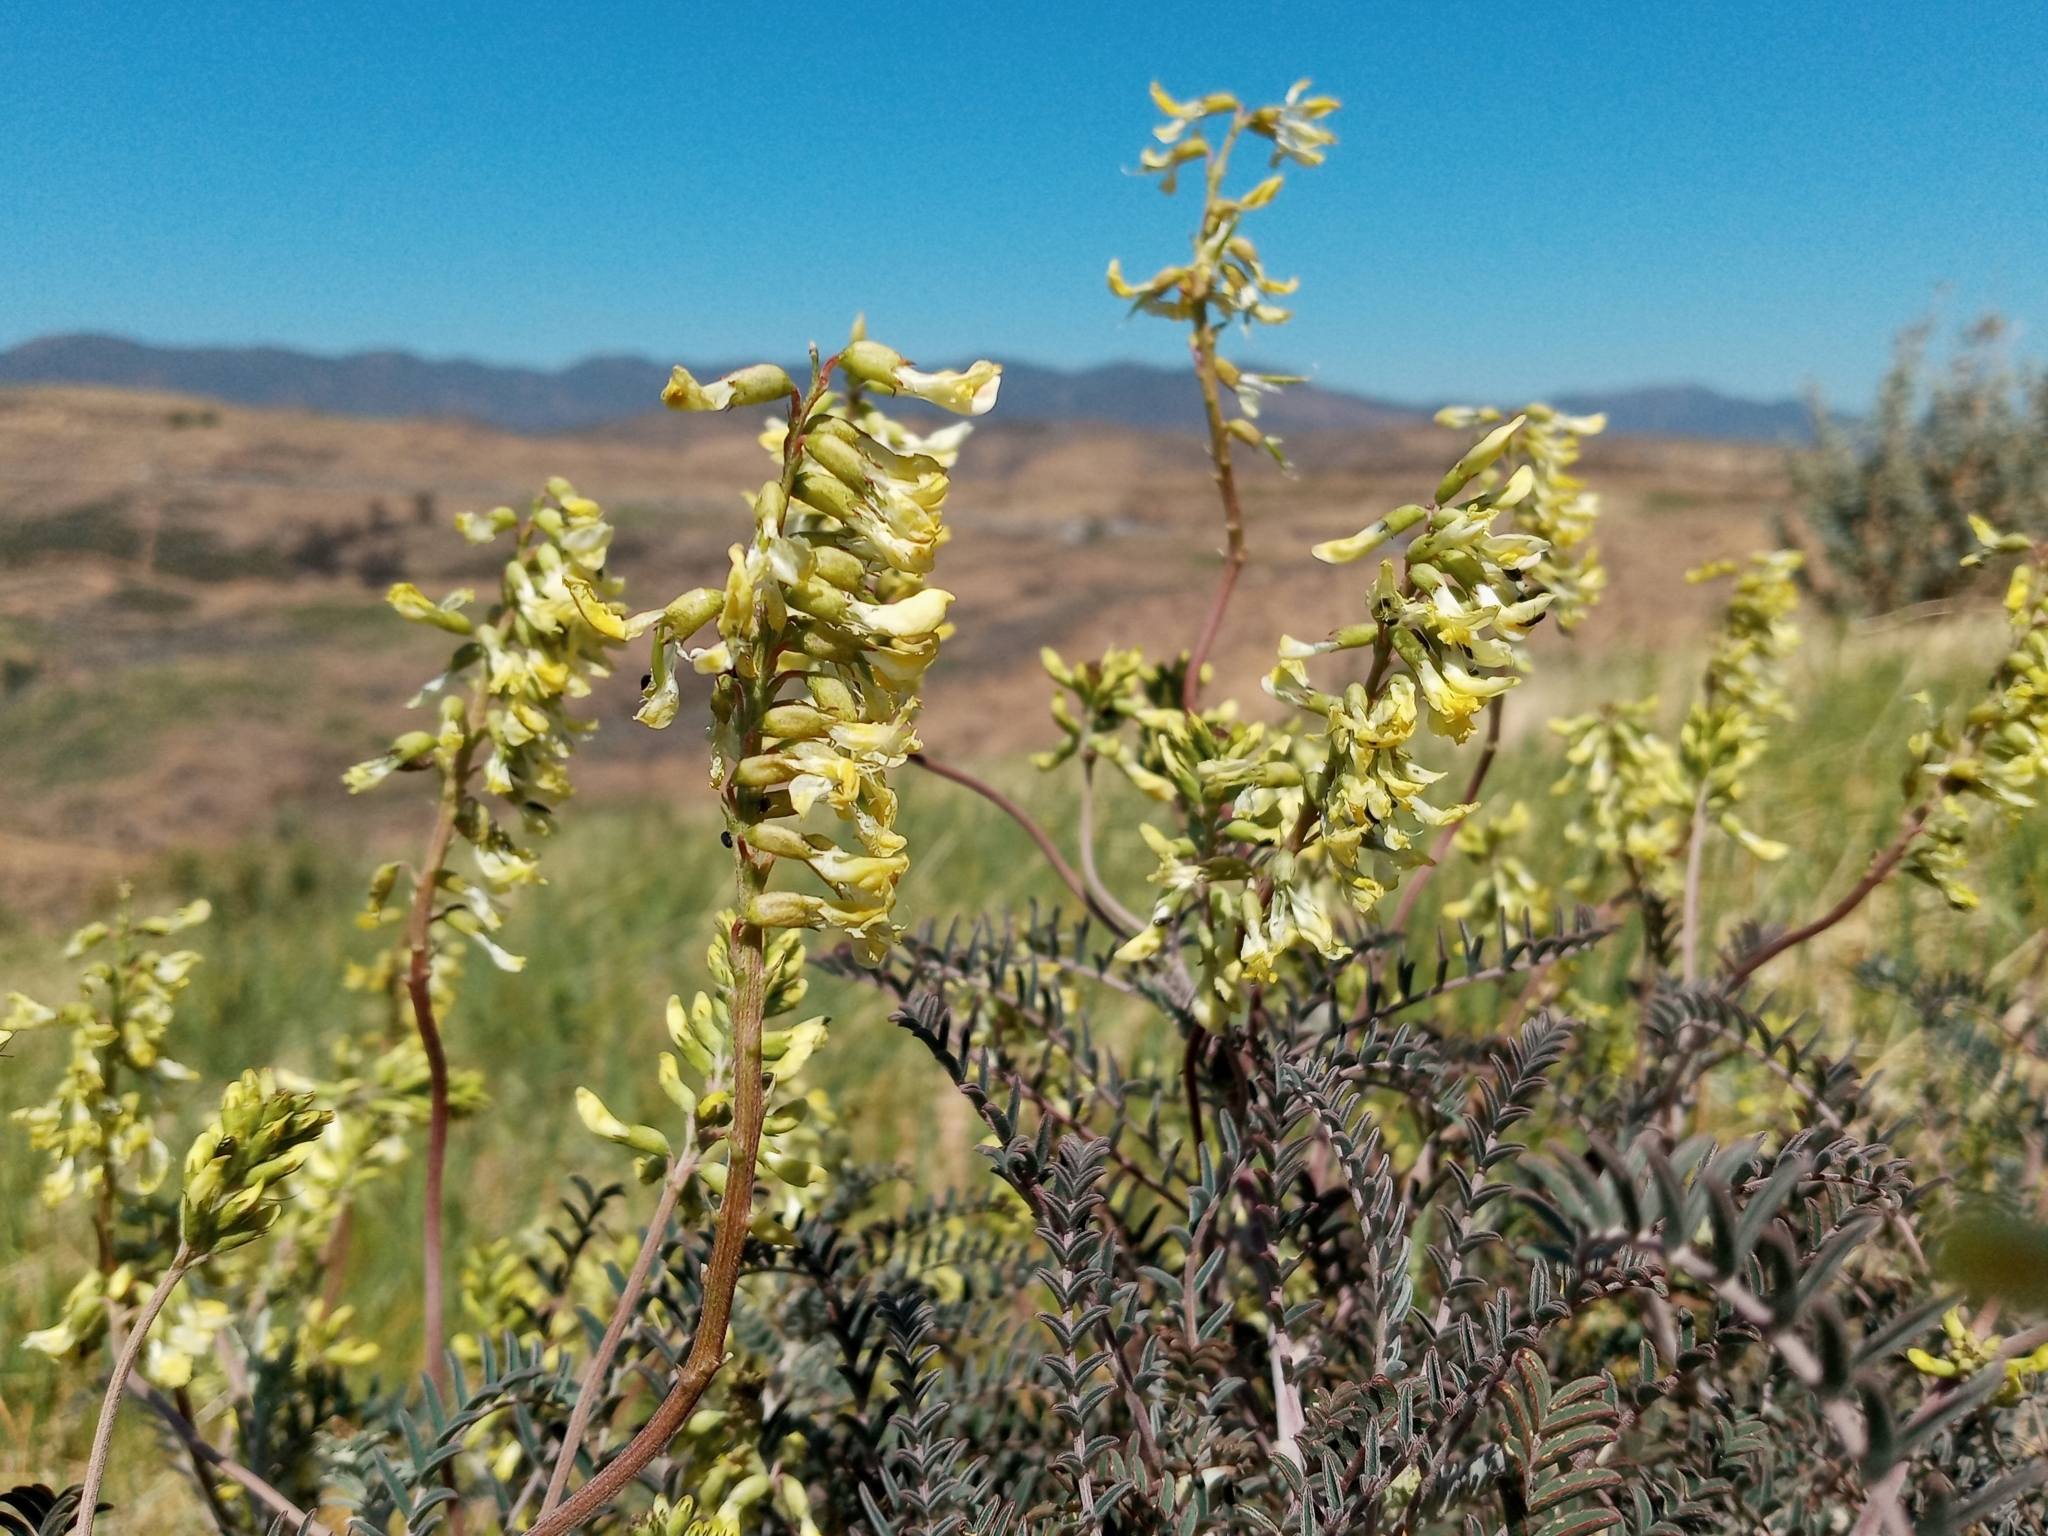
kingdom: Plantae
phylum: Tracheophyta
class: Magnoliopsida
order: Fabales
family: Fabaceae
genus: Astragalus
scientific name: Astragalus trichopodus
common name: Santa barbara milk-vetch
